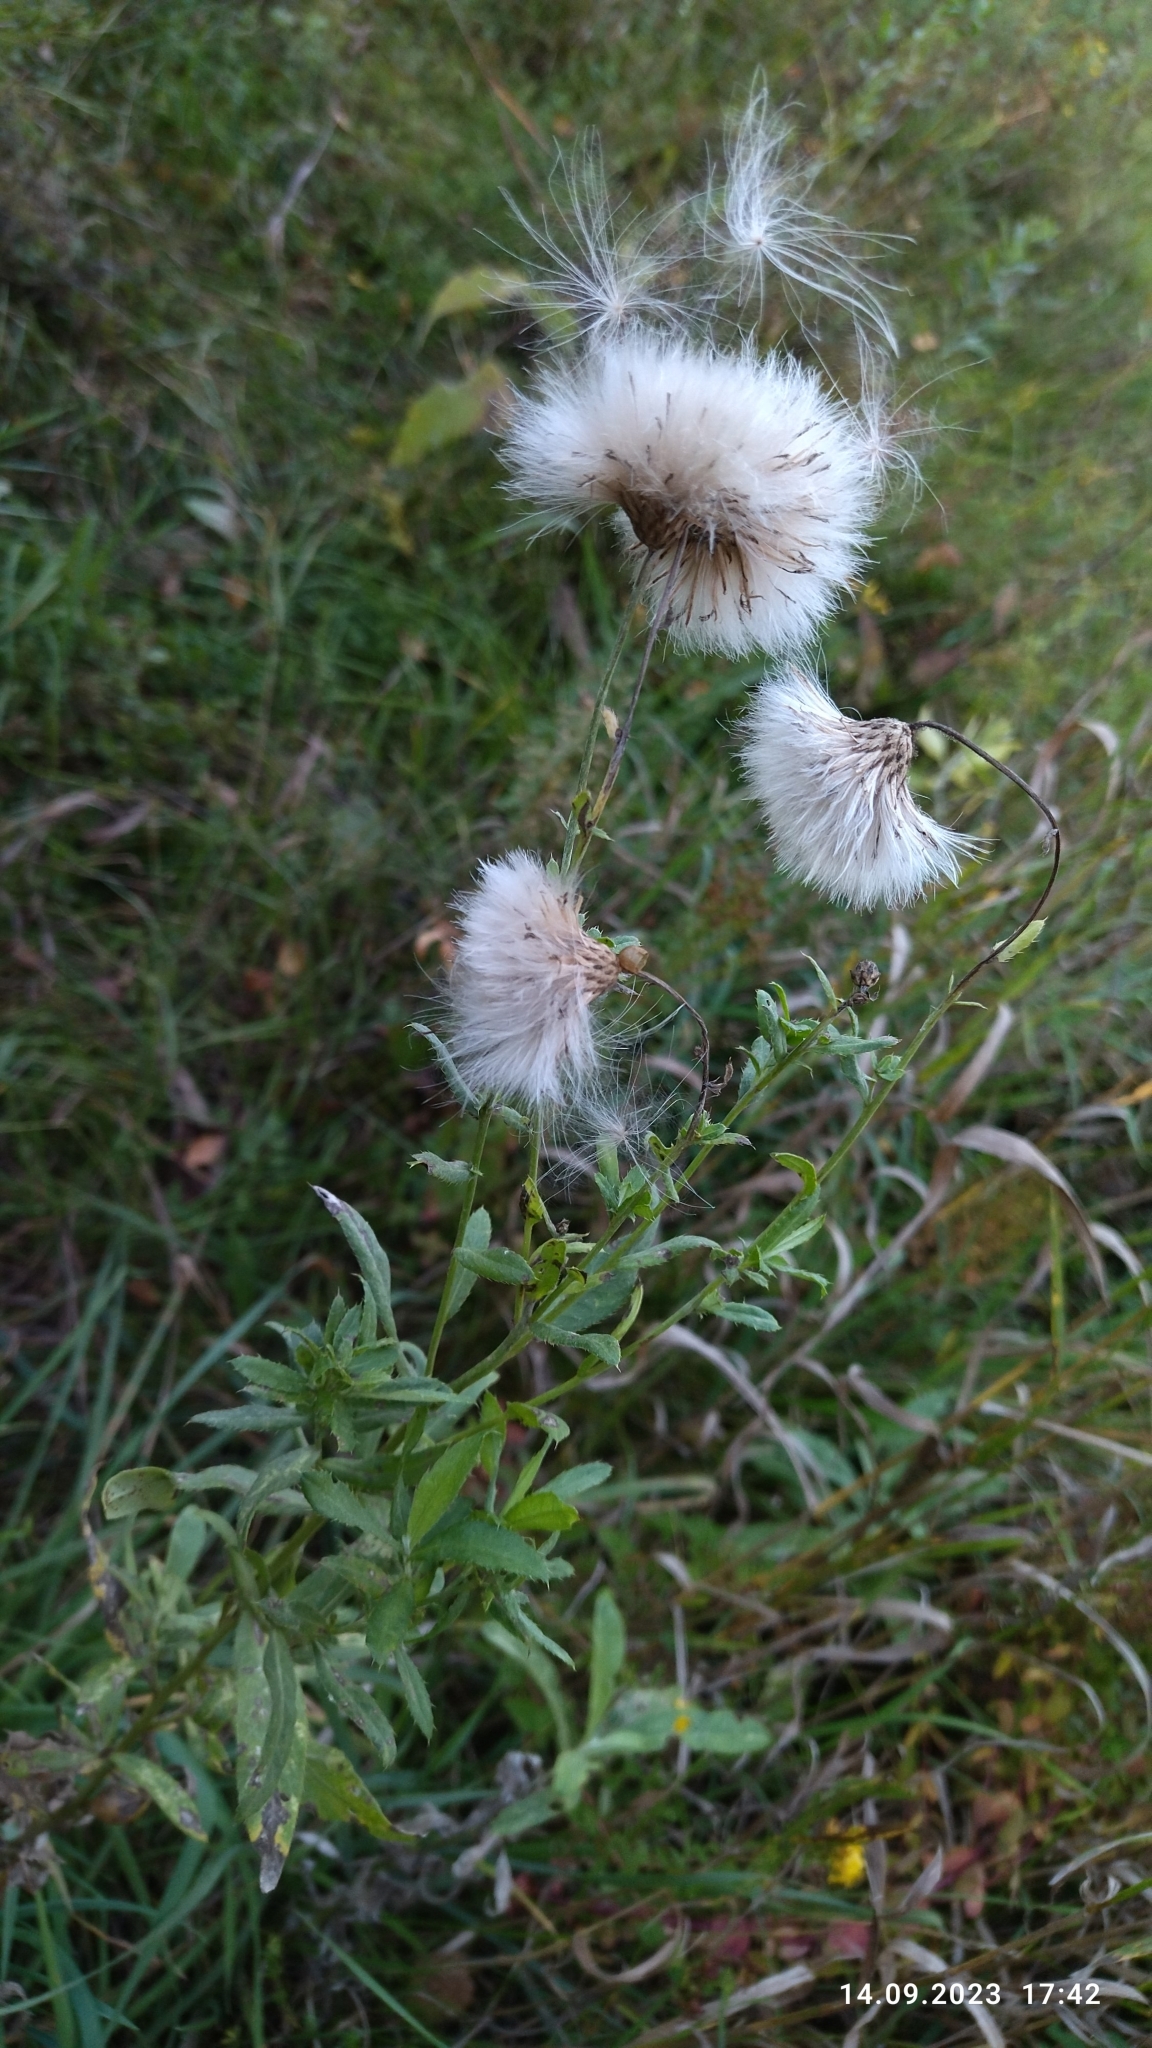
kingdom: Plantae
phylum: Tracheophyta
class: Magnoliopsida
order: Asterales
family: Asteraceae
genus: Cirsium
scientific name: Cirsium arvense
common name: Creeping thistle
